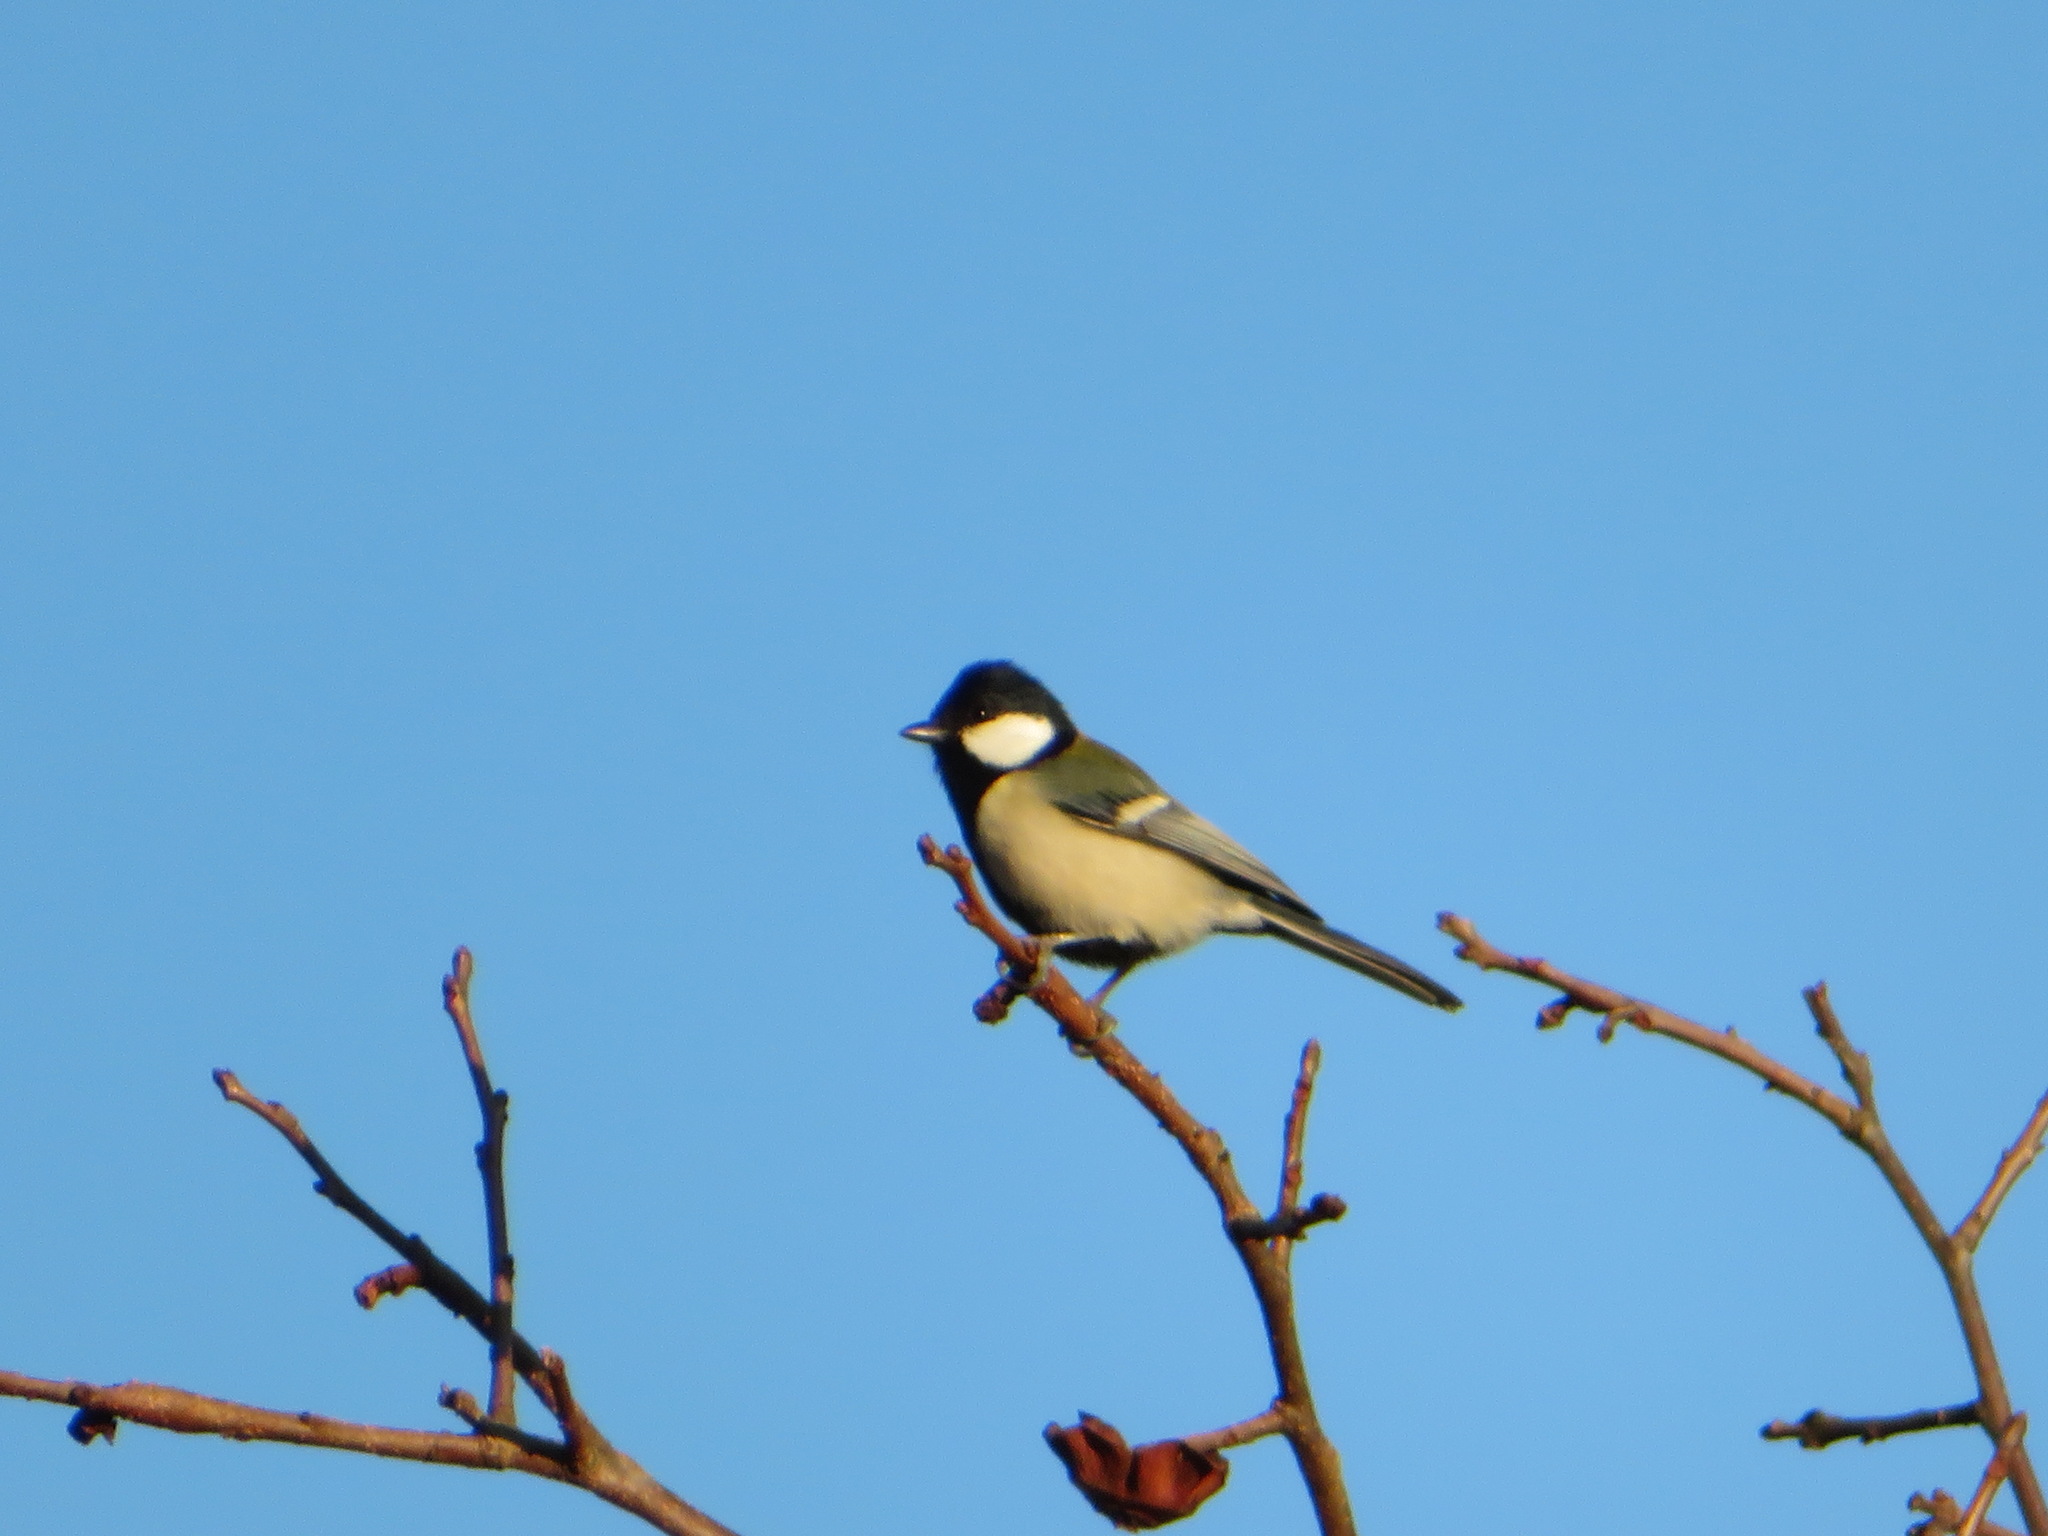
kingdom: Animalia
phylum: Chordata
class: Aves
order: Passeriformes
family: Paridae
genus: Parus
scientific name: Parus minor
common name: Japanese tit
